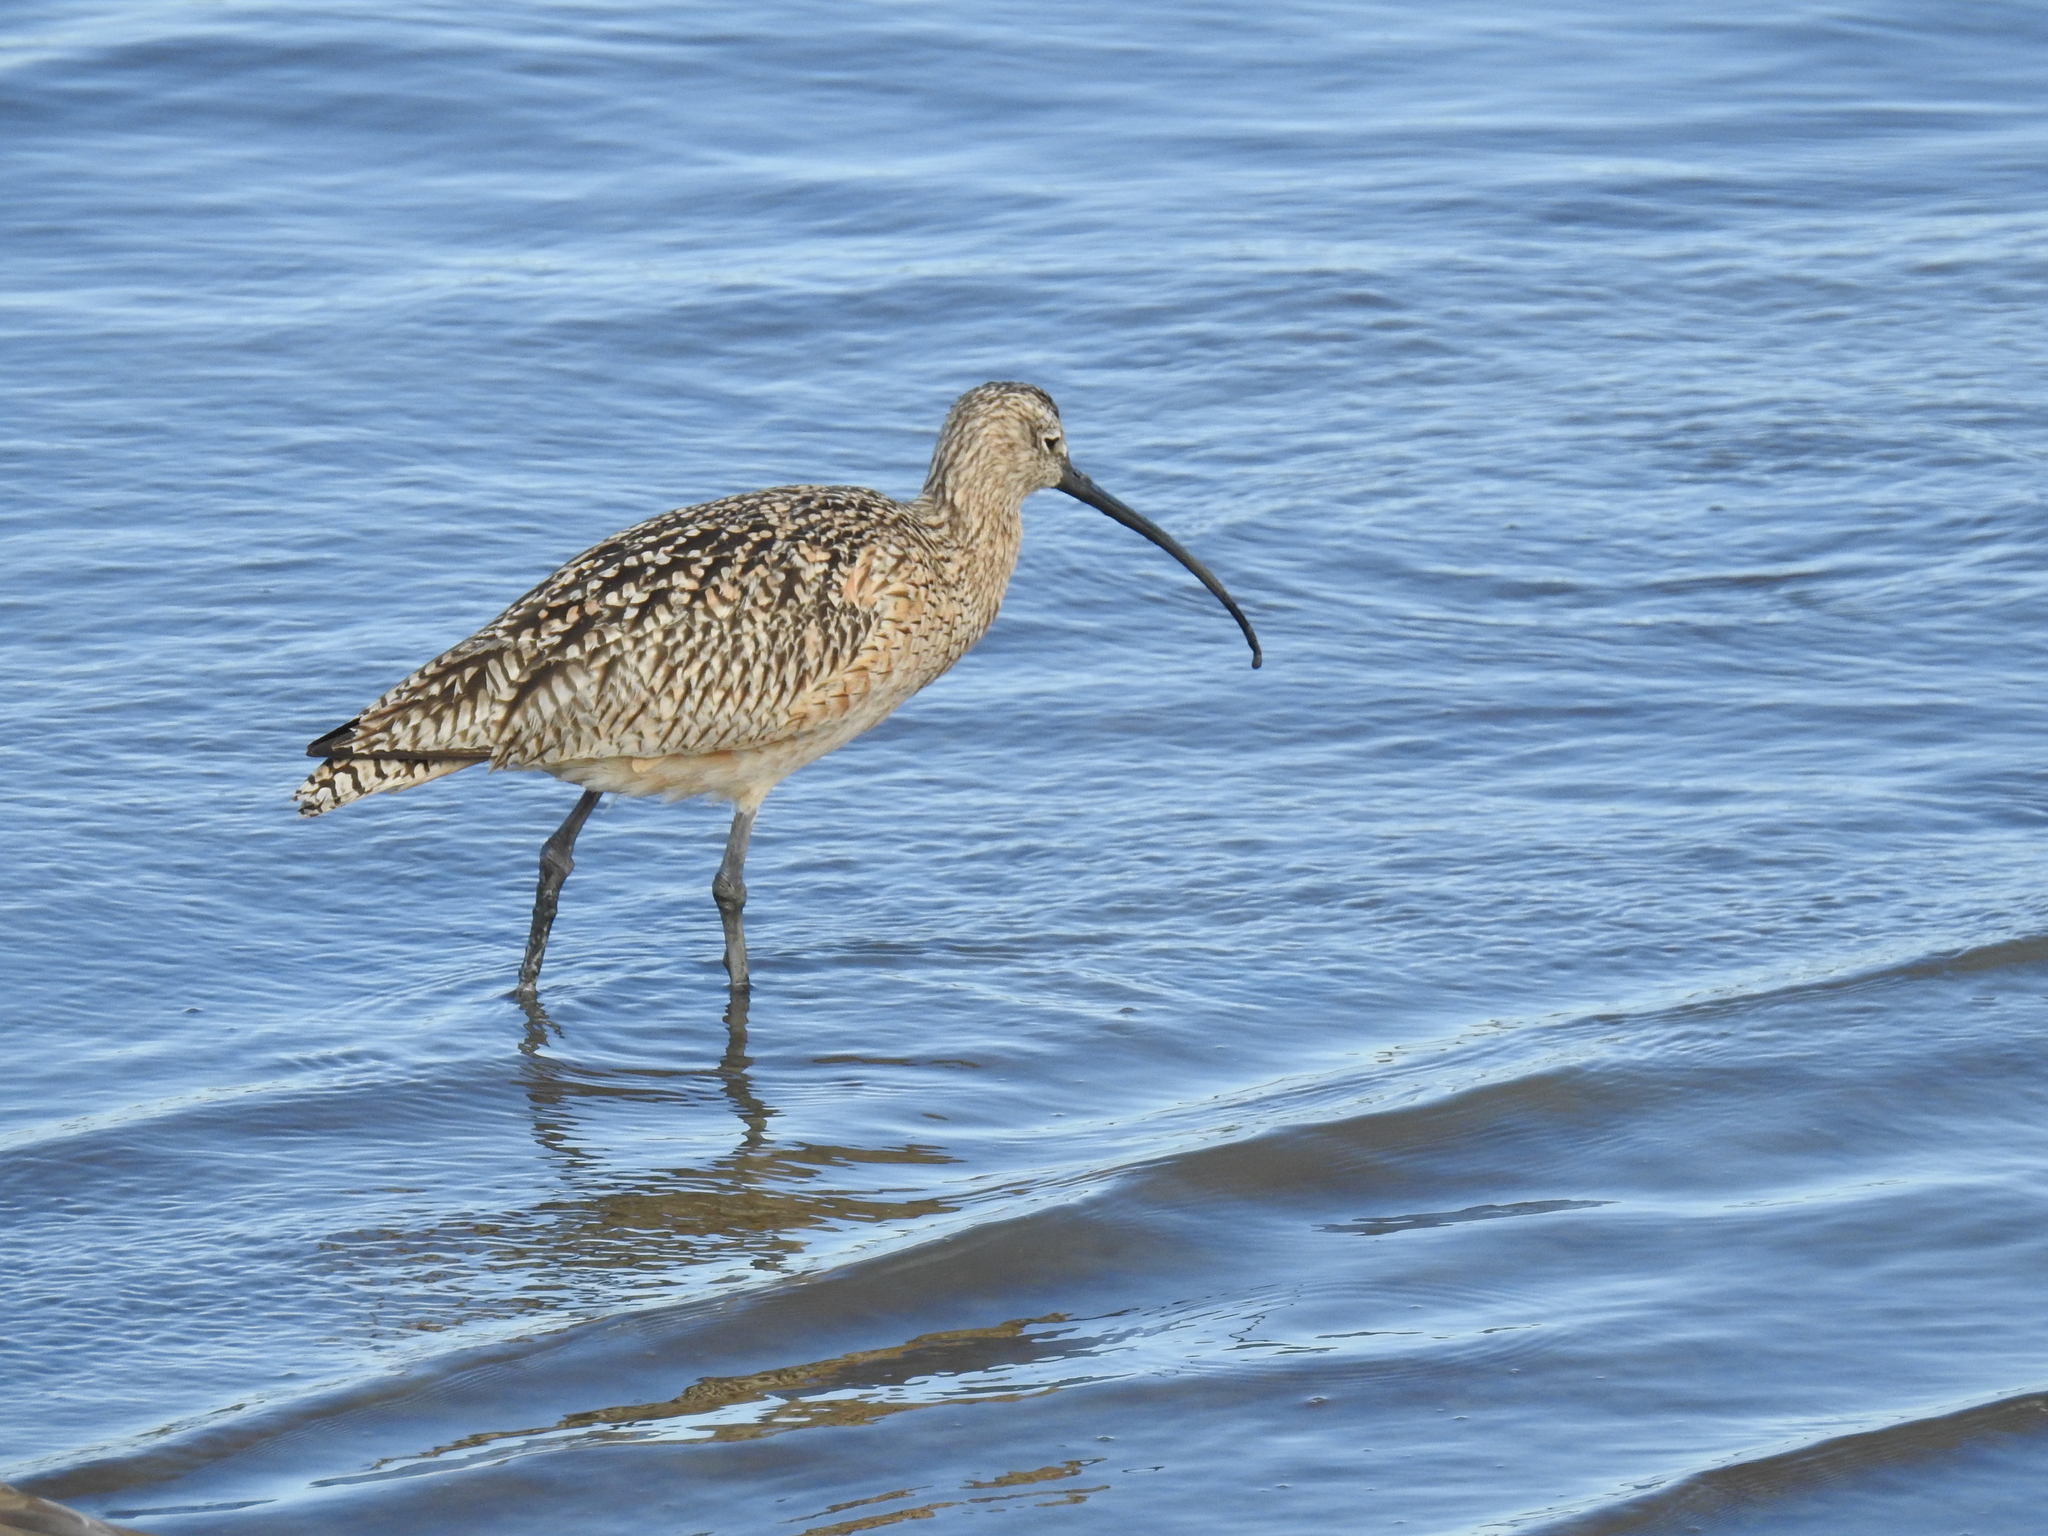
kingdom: Animalia
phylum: Chordata
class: Aves
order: Charadriiformes
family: Scolopacidae
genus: Numenius
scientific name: Numenius americanus
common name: Long-billed curlew
